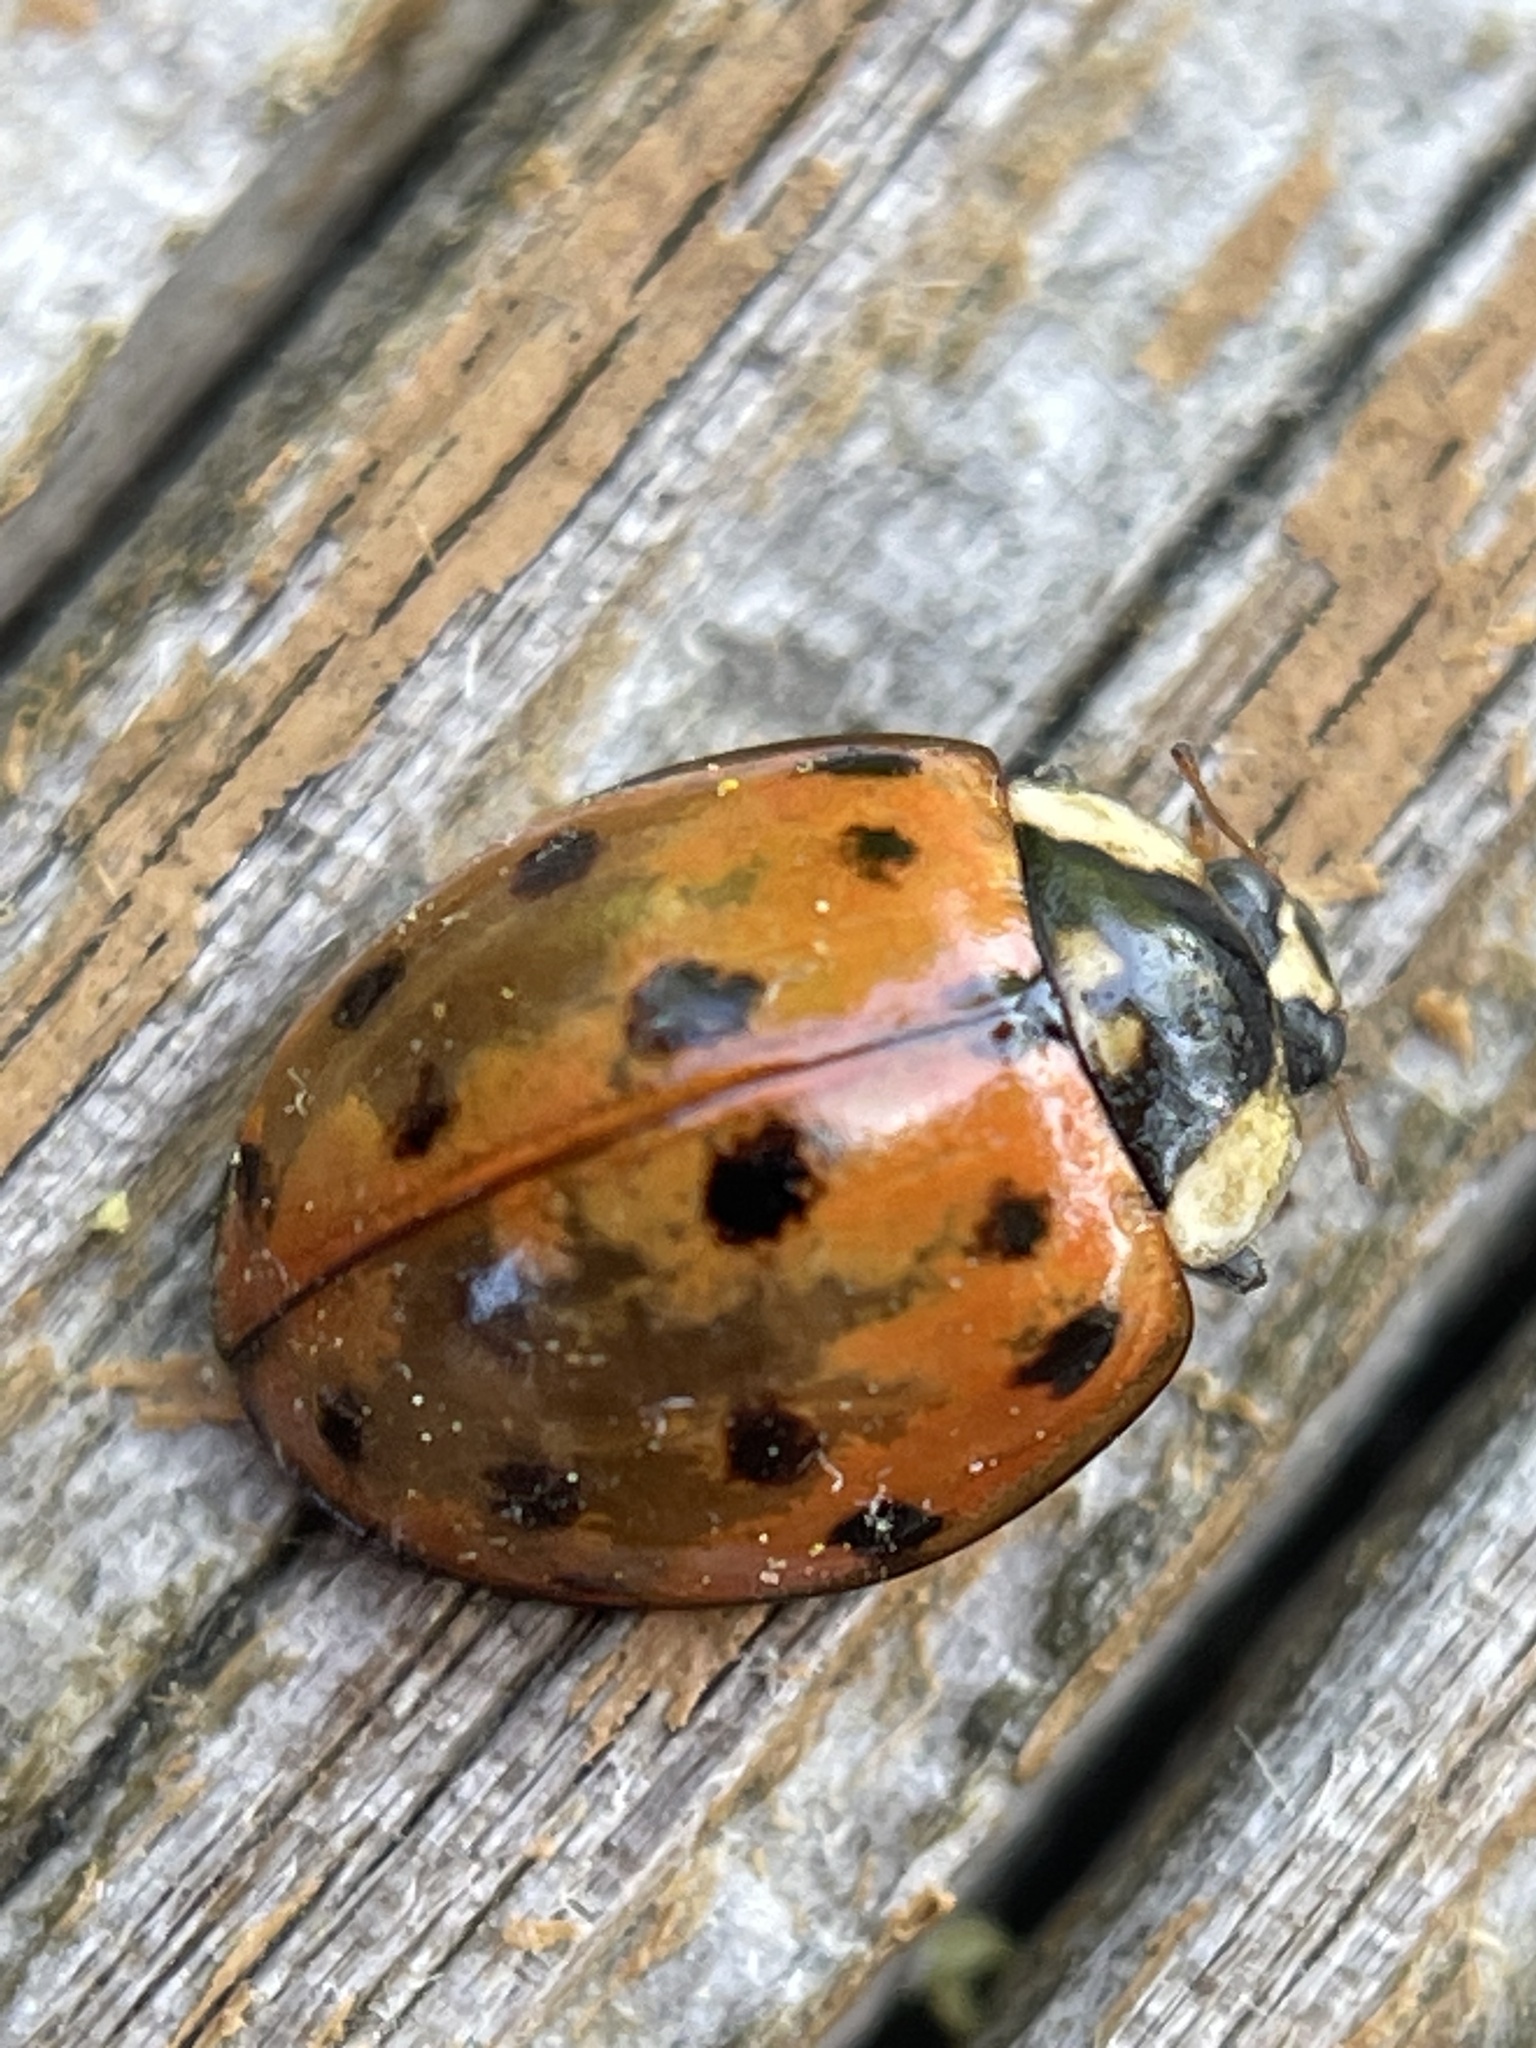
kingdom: Animalia
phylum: Arthropoda
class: Insecta
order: Coleoptera
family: Coccinellidae
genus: Harmonia
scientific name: Harmonia axyridis
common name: Harlequin ladybird
